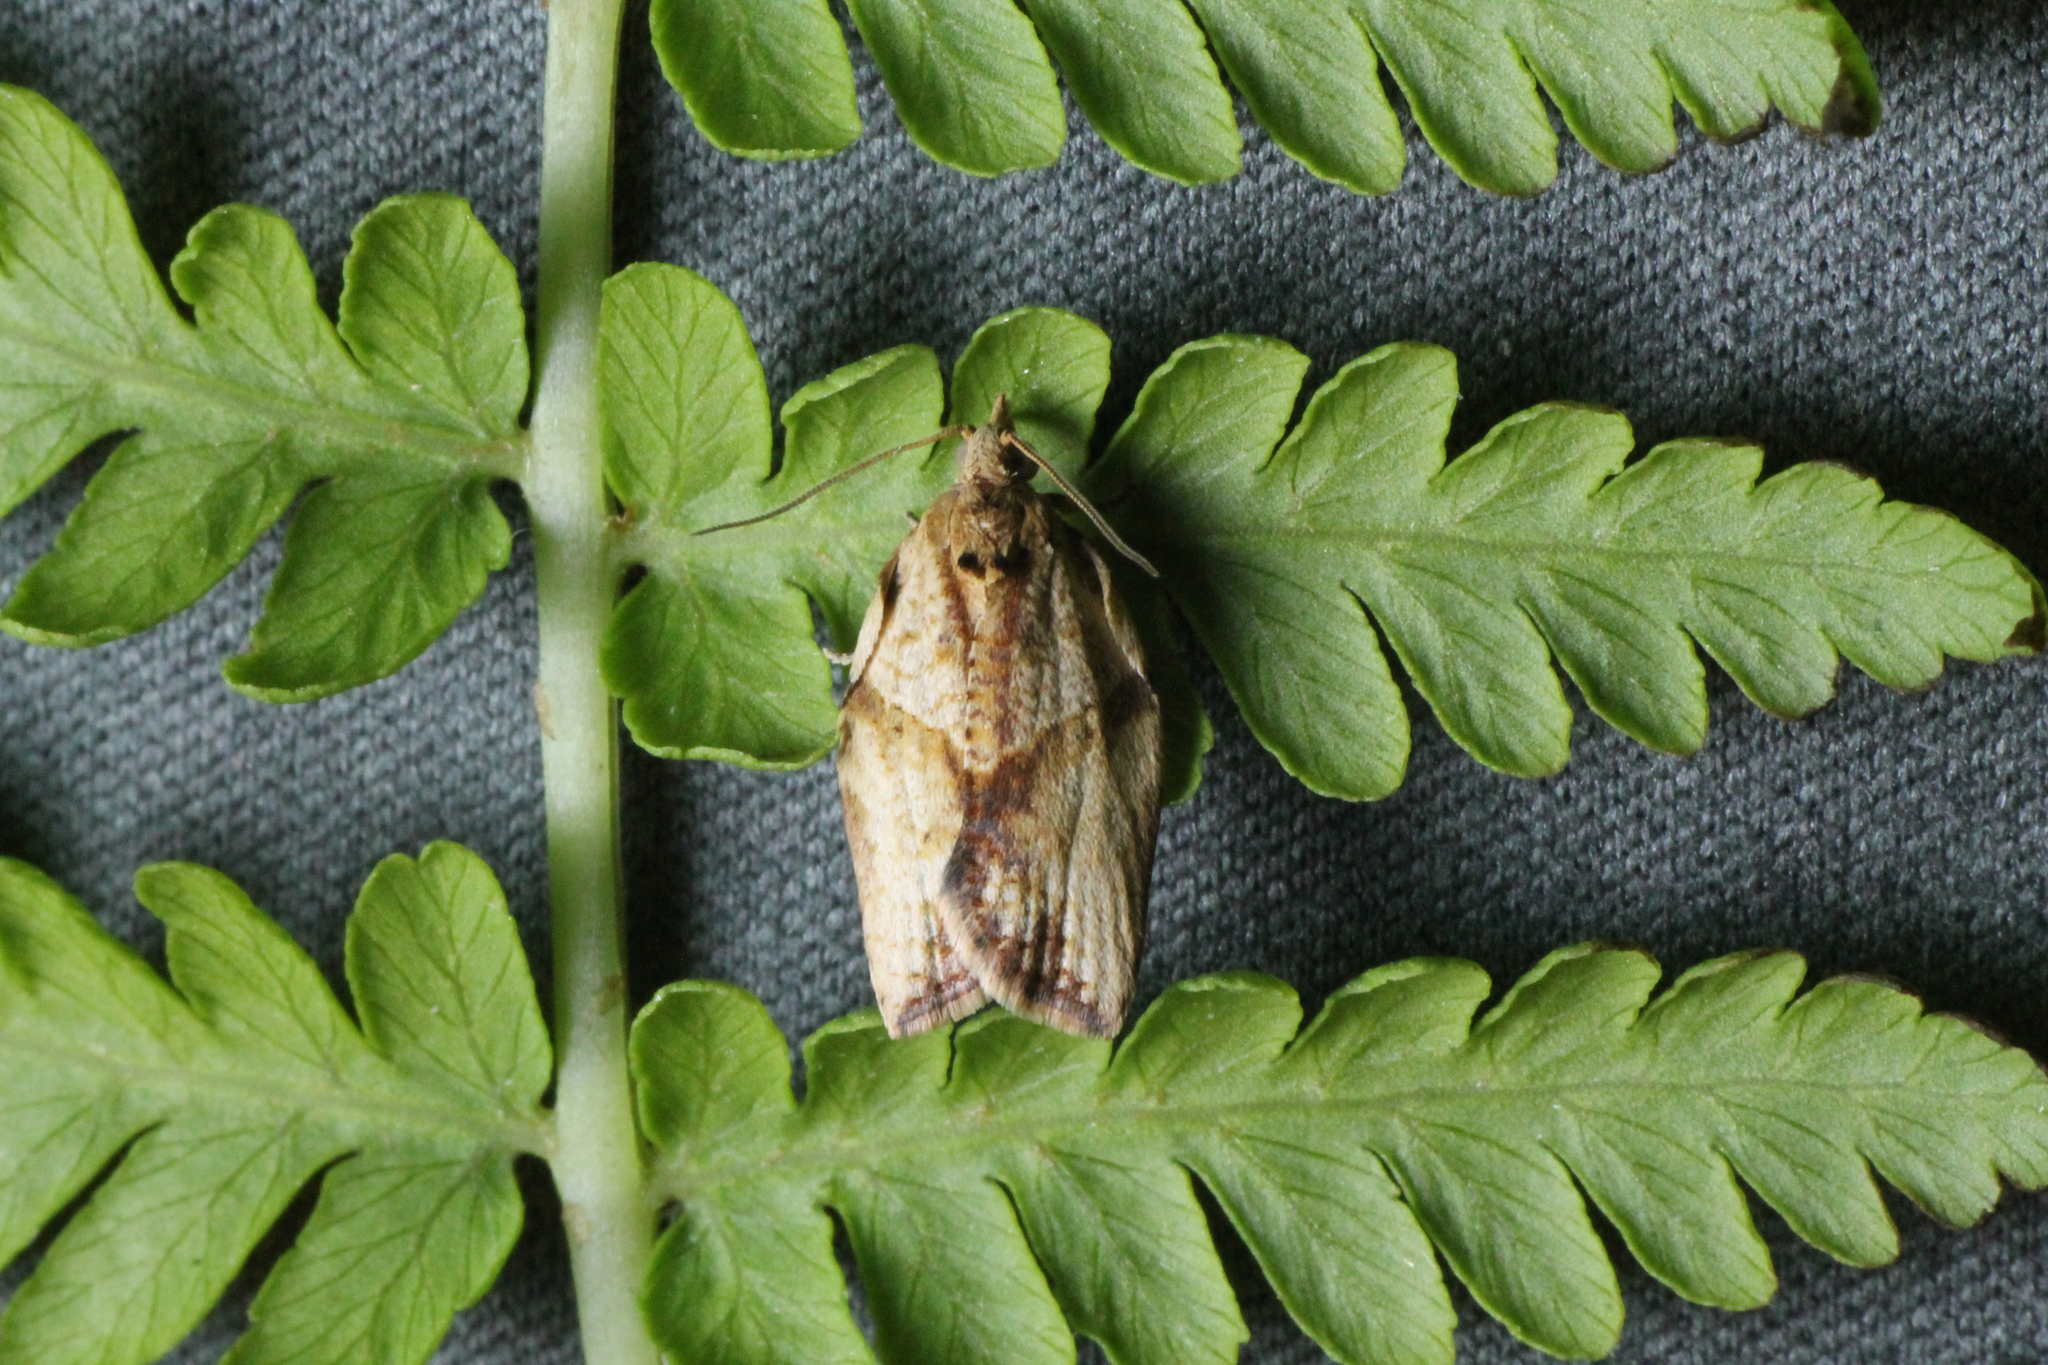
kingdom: Animalia
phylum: Arthropoda
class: Insecta
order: Lepidoptera
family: Tortricidae
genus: Epiphyas
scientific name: Epiphyas postvittana
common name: Light brown apple moth
